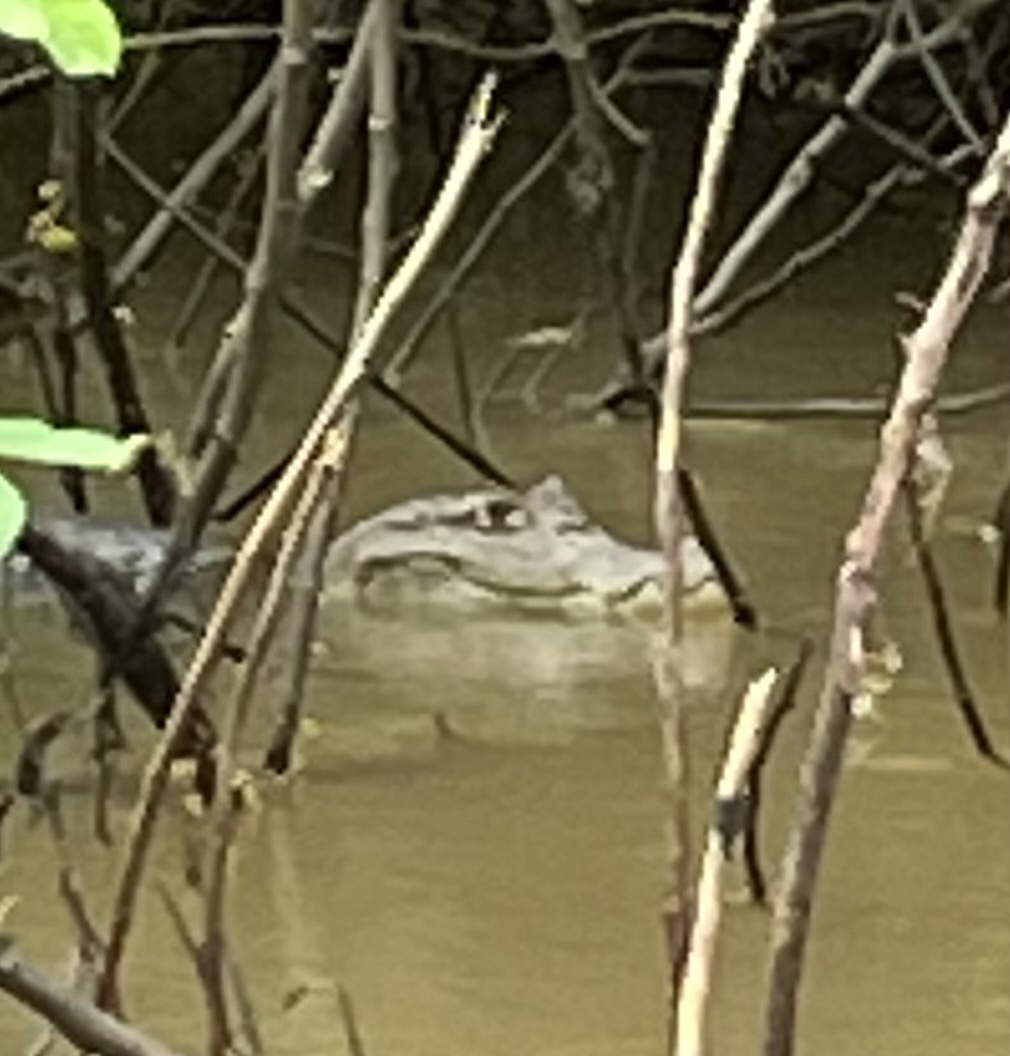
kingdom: Animalia
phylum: Chordata
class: Crocodylia
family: Alligatoridae
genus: Caiman
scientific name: Caiman crocodilus
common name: Common caiman
